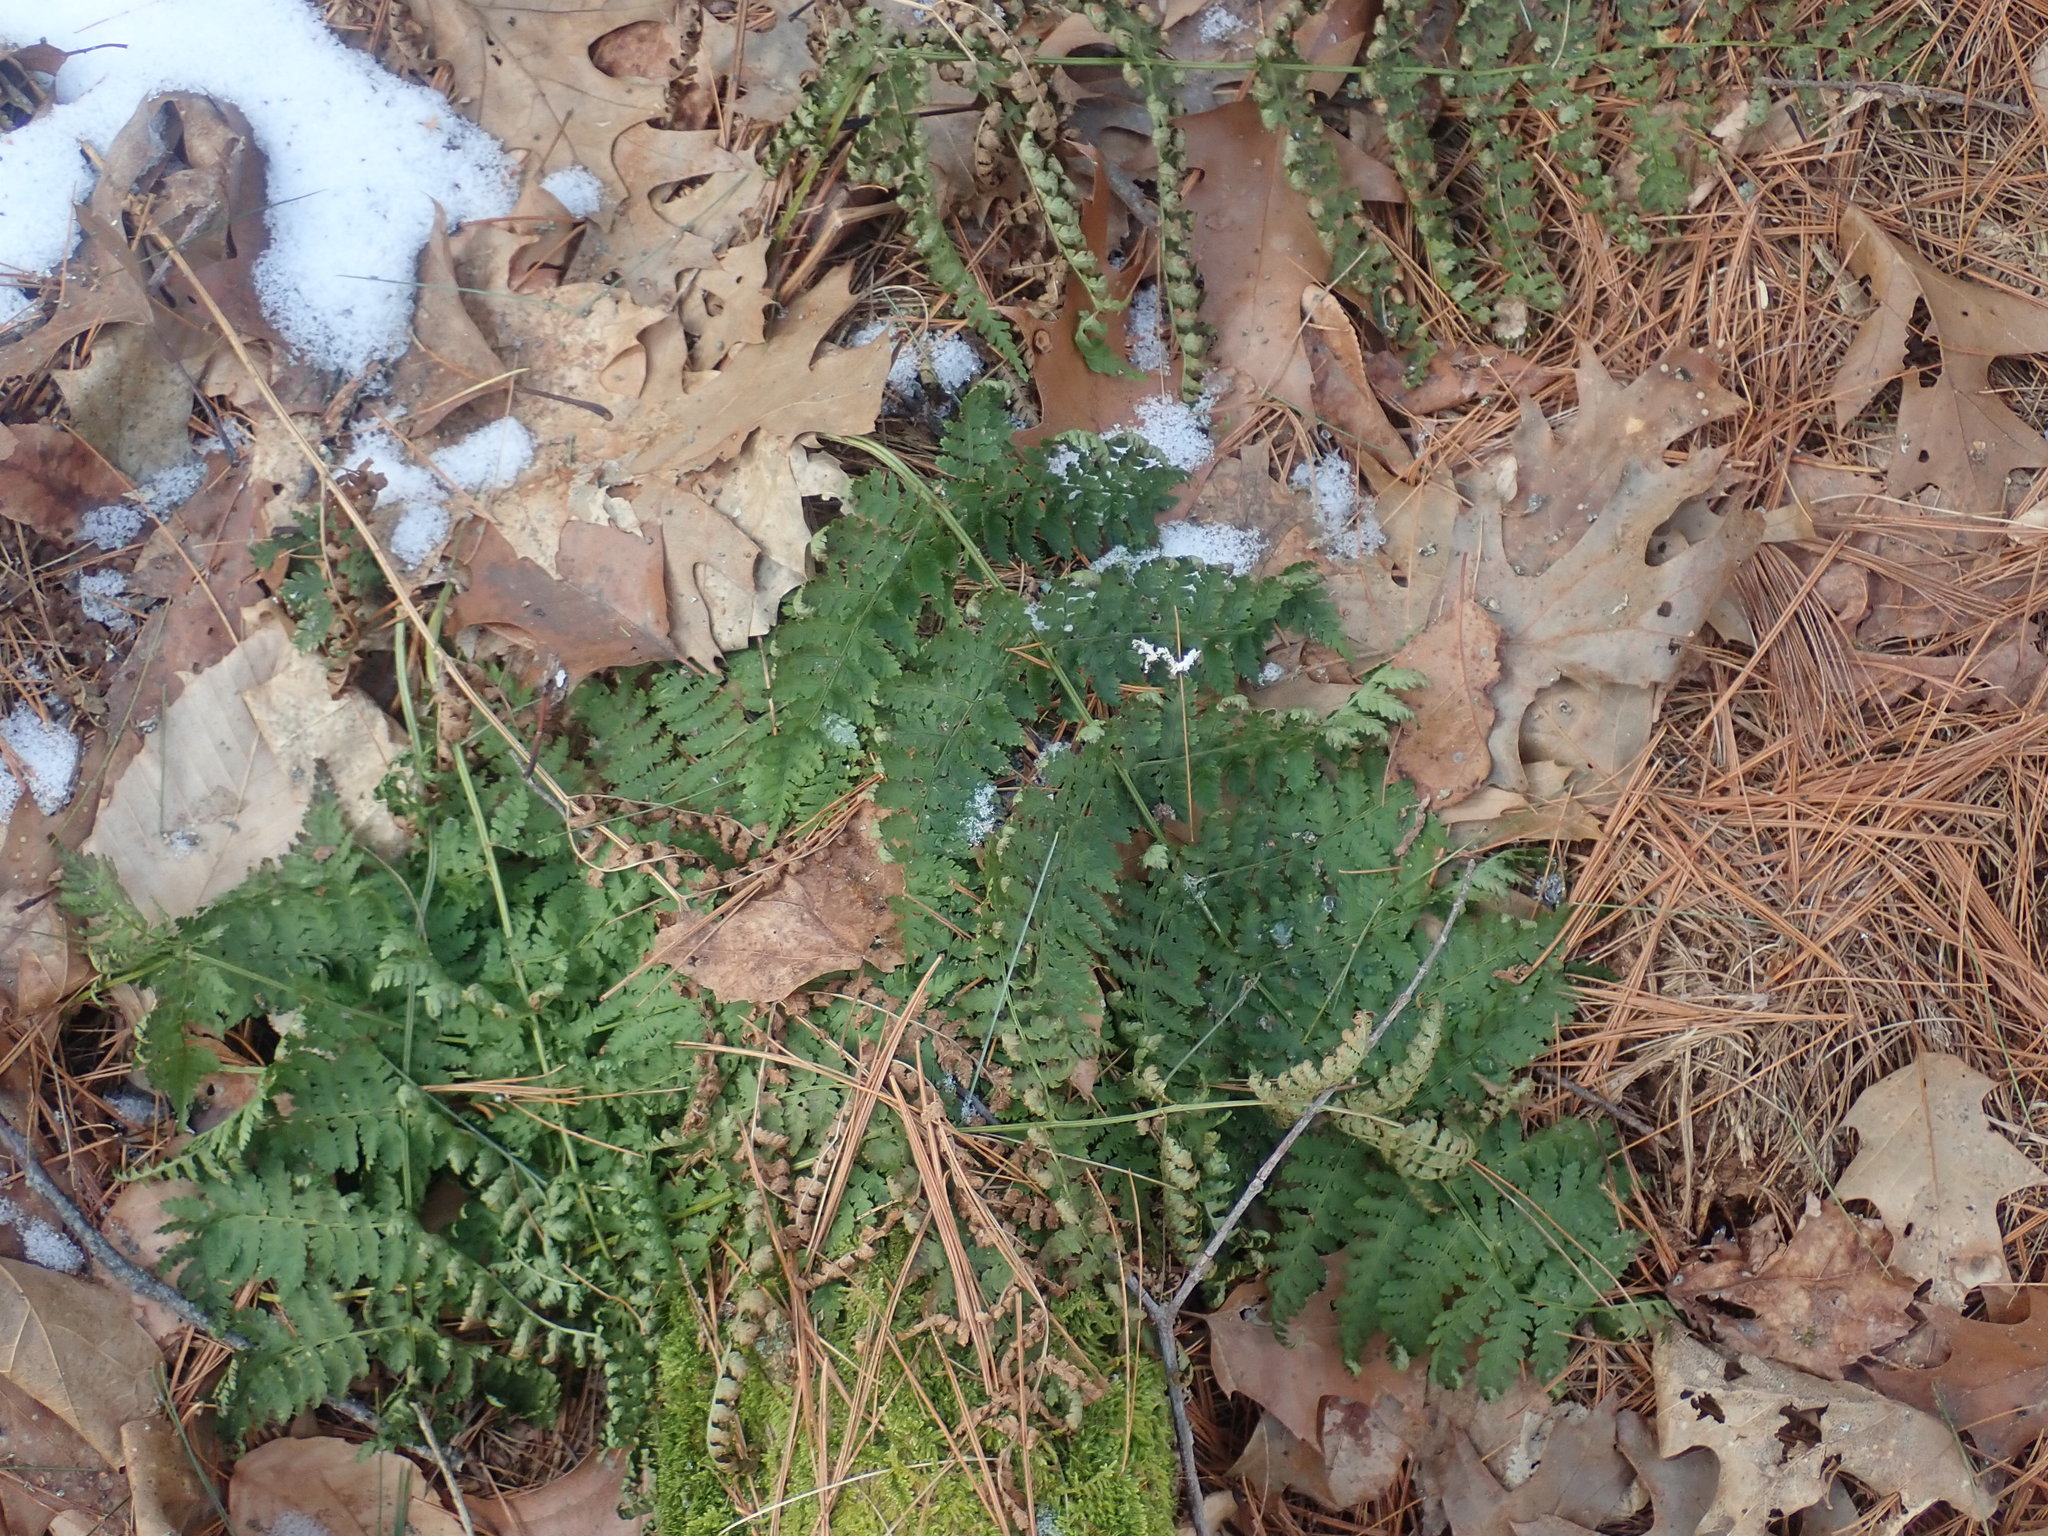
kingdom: Plantae
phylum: Tracheophyta
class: Polypodiopsida
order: Polypodiales
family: Dryopteridaceae
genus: Dryopteris
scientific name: Dryopteris intermedia
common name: Evergreen wood fern
